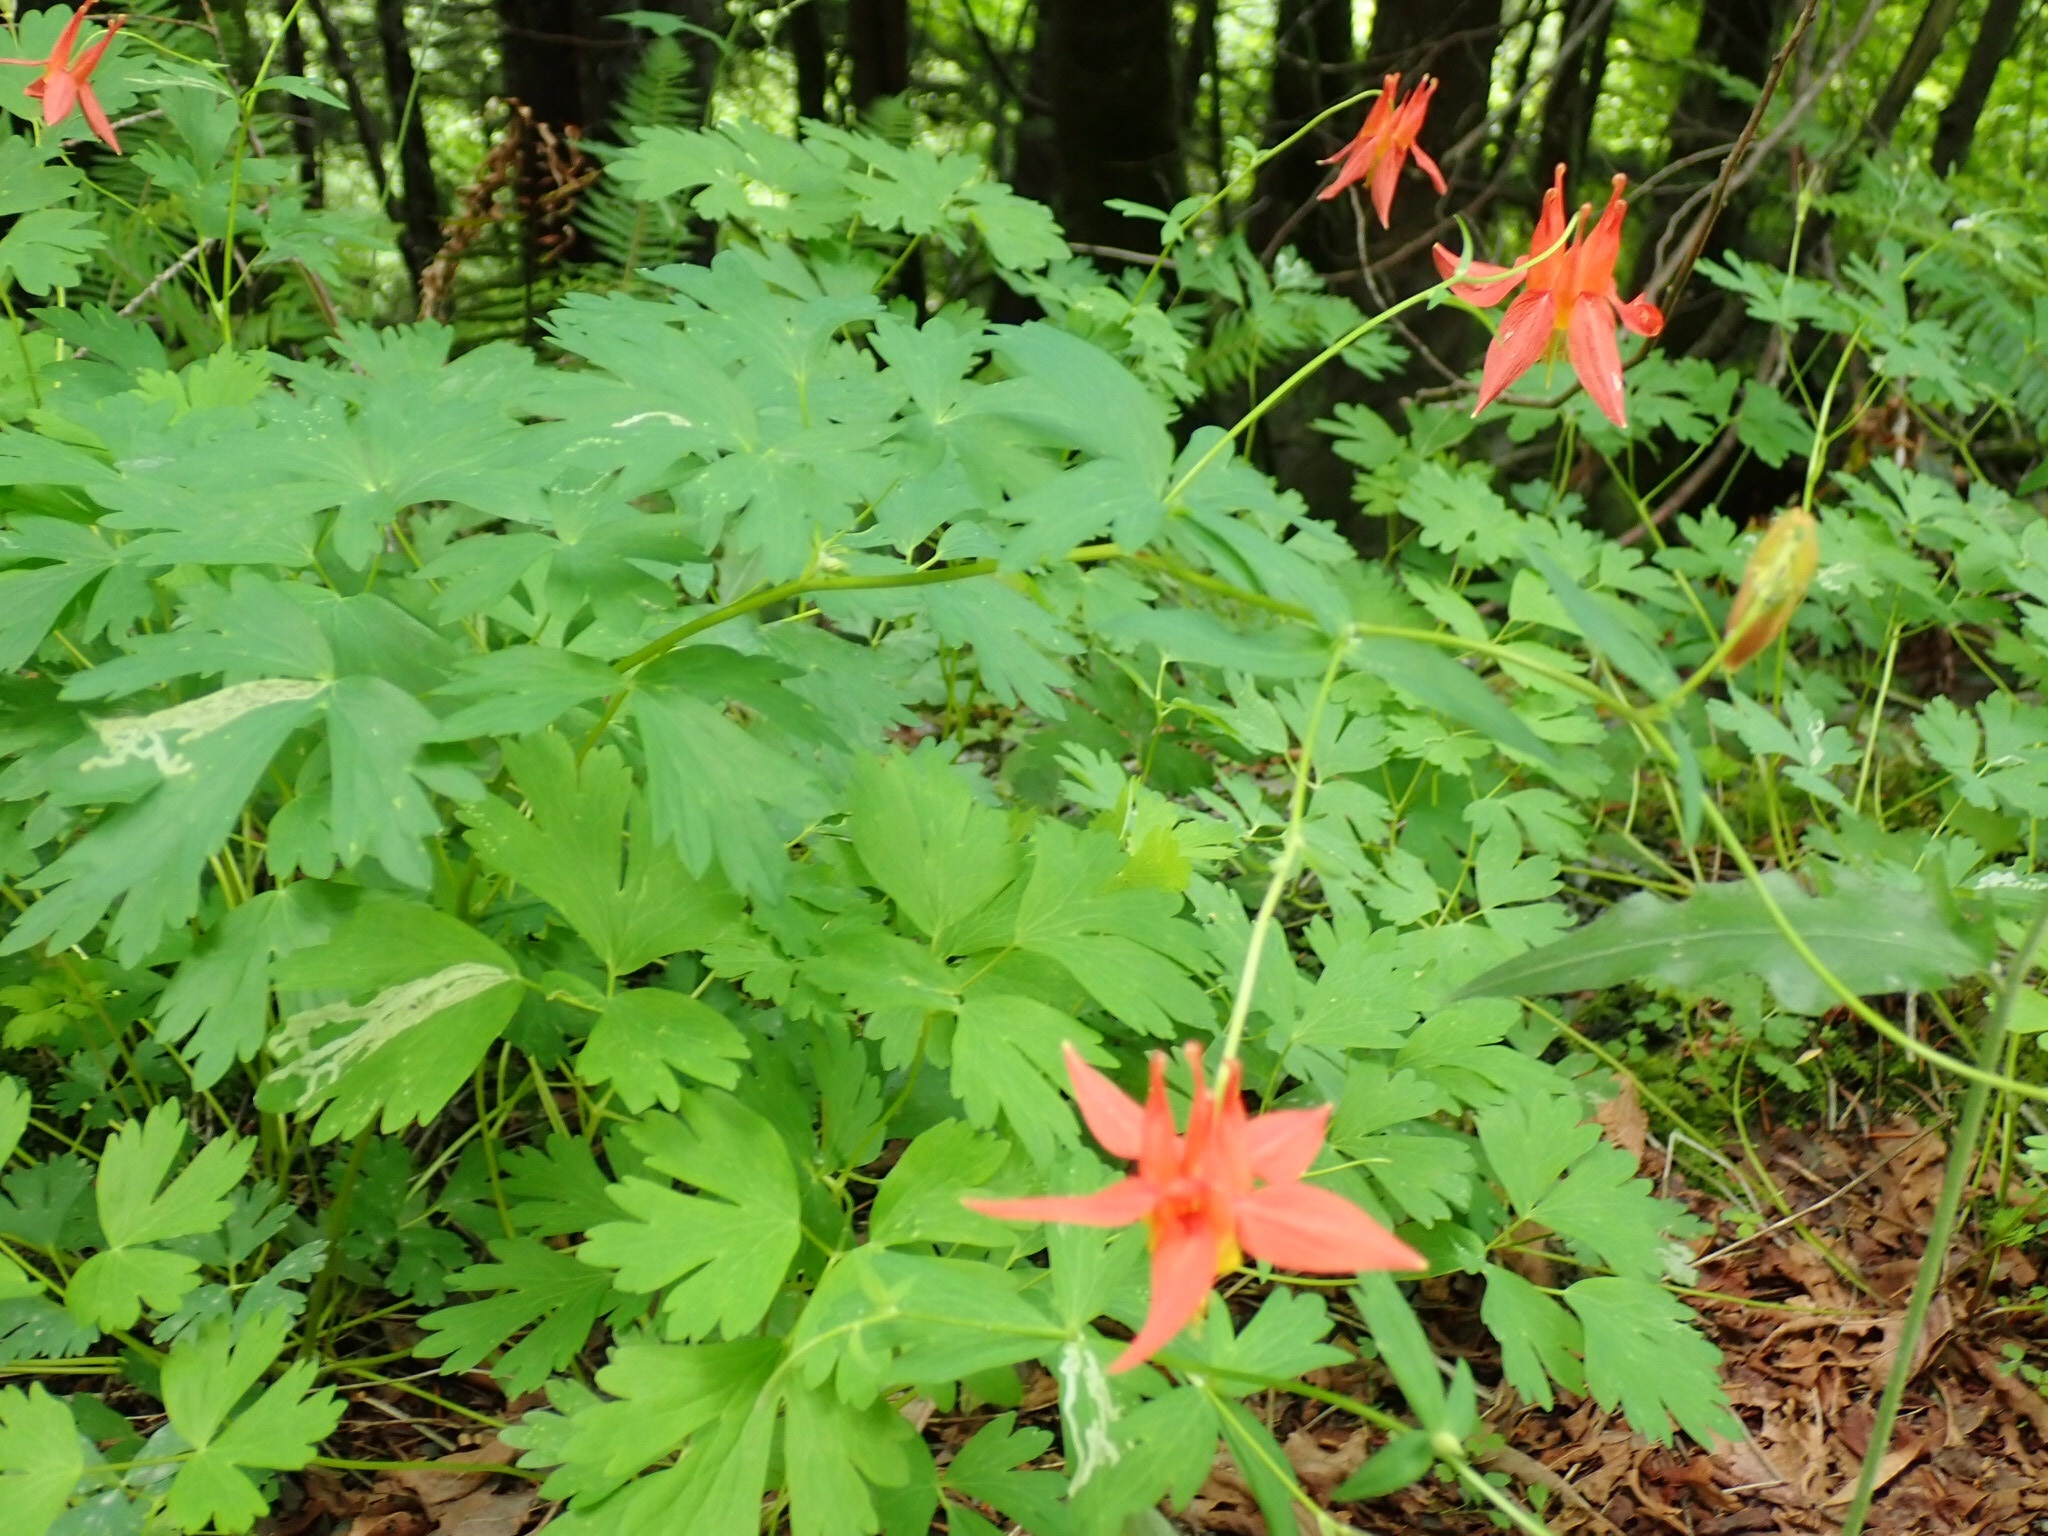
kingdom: Plantae
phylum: Tracheophyta
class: Magnoliopsida
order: Ranunculales
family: Ranunculaceae
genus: Aquilegia
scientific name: Aquilegia formosa
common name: Sitka columbine
